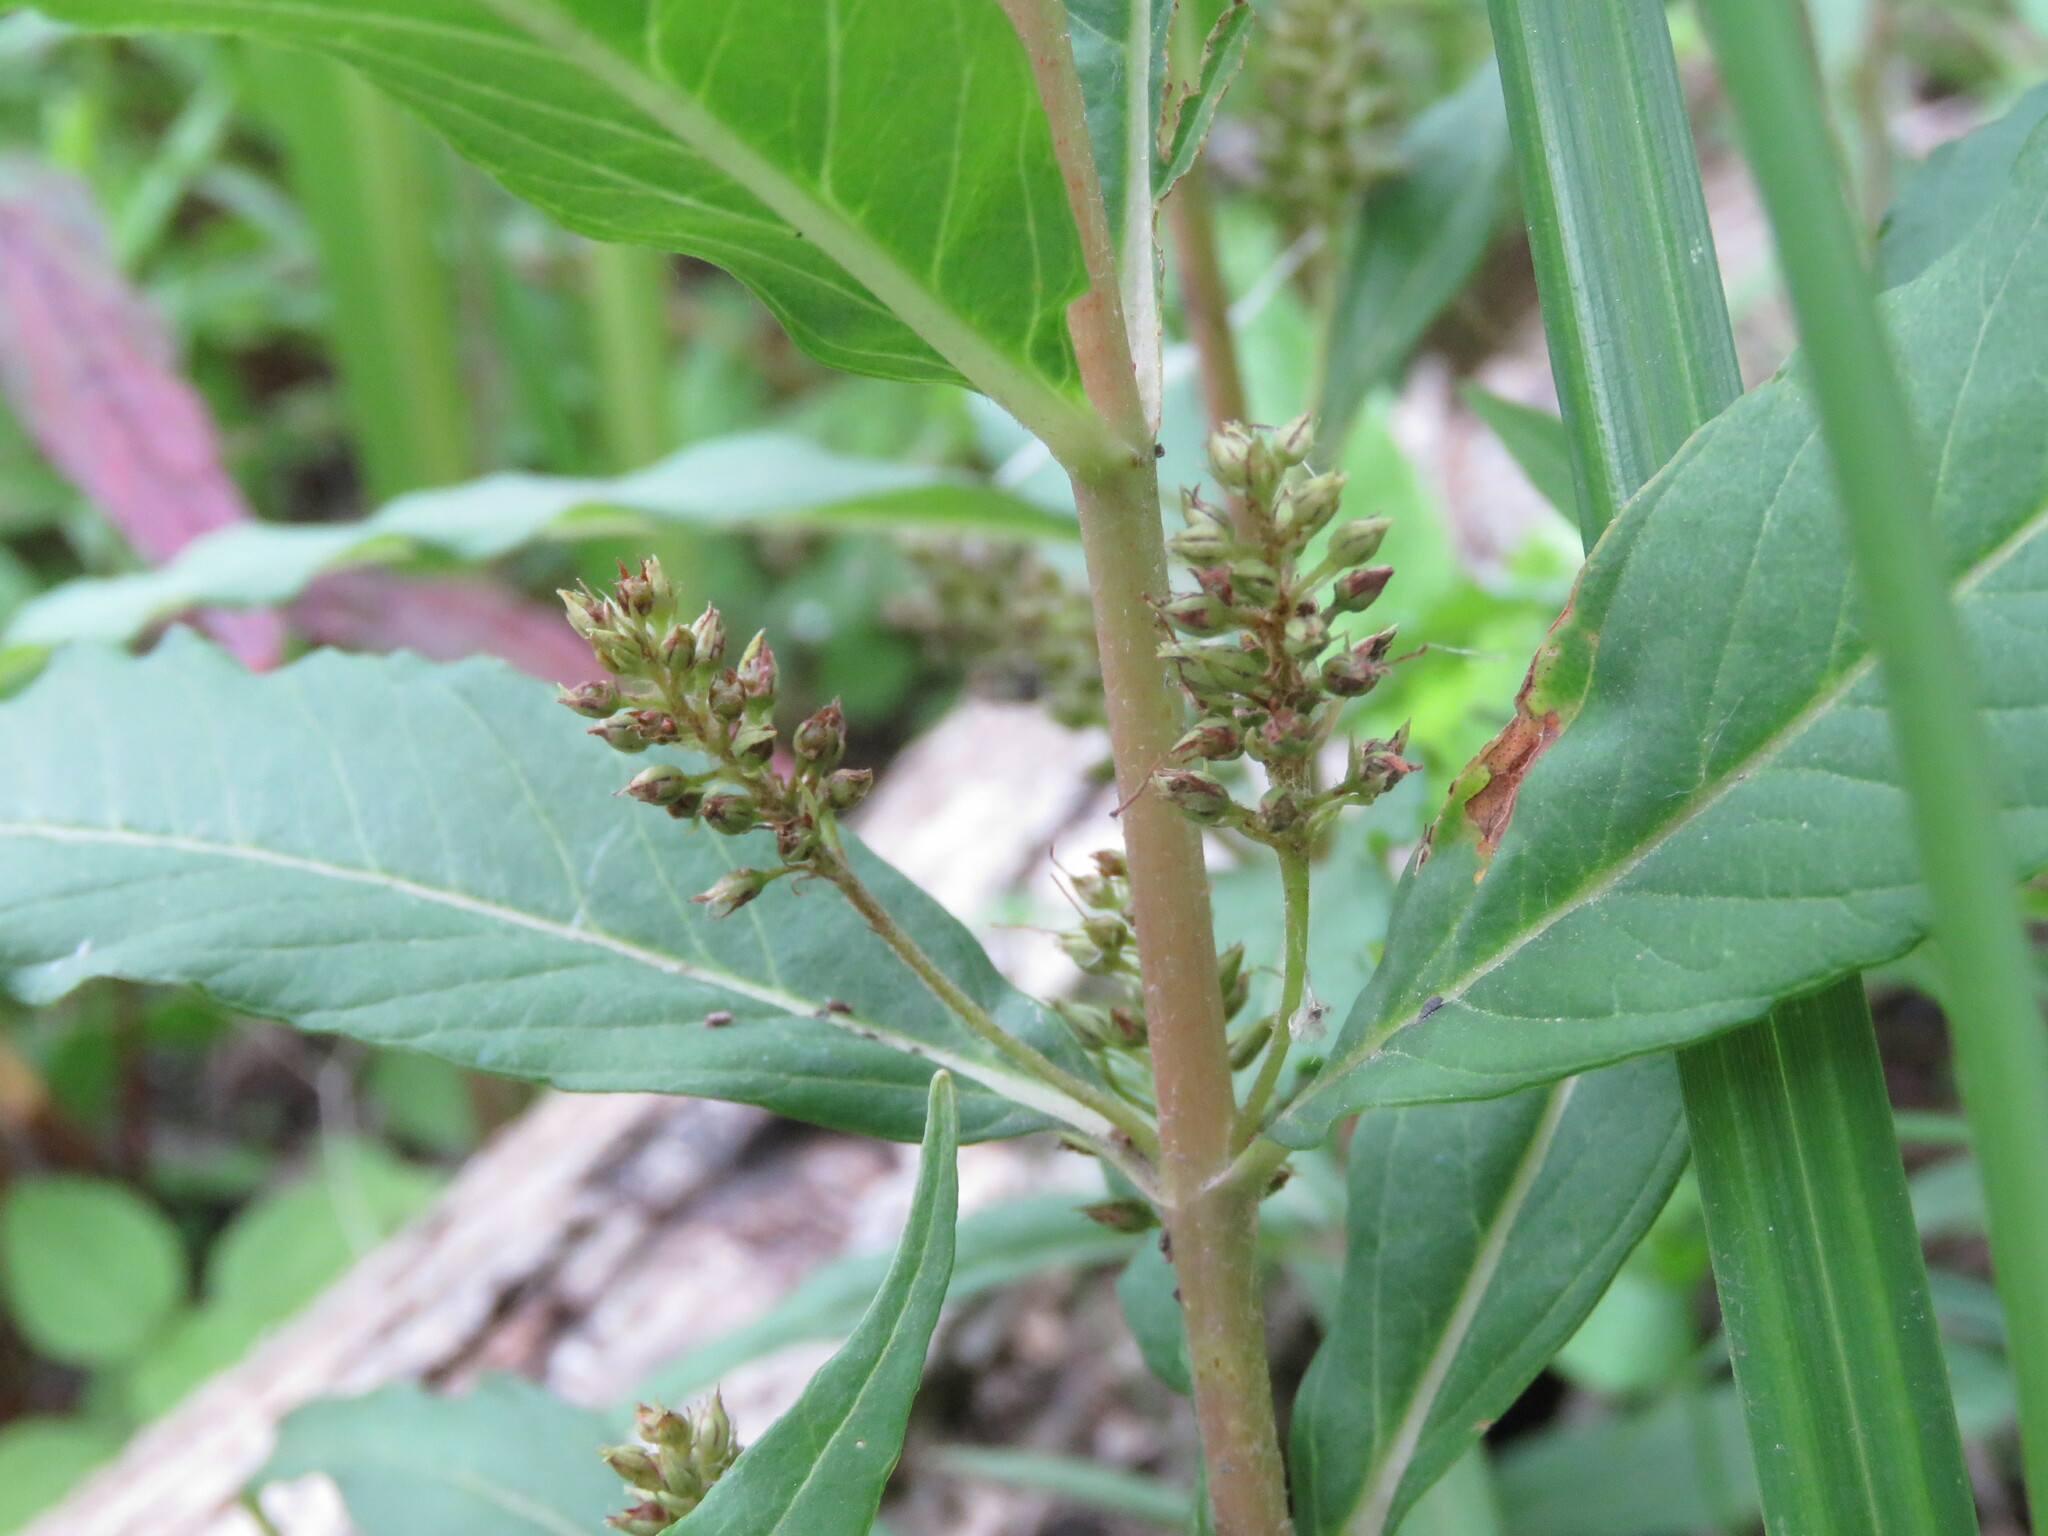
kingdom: Plantae
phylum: Tracheophyta
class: Magnoliopsida
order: Ericales
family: Primulaceae
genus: Lysimachia
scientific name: Lysimachia thyrsiflora
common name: Tufted loosestrife
